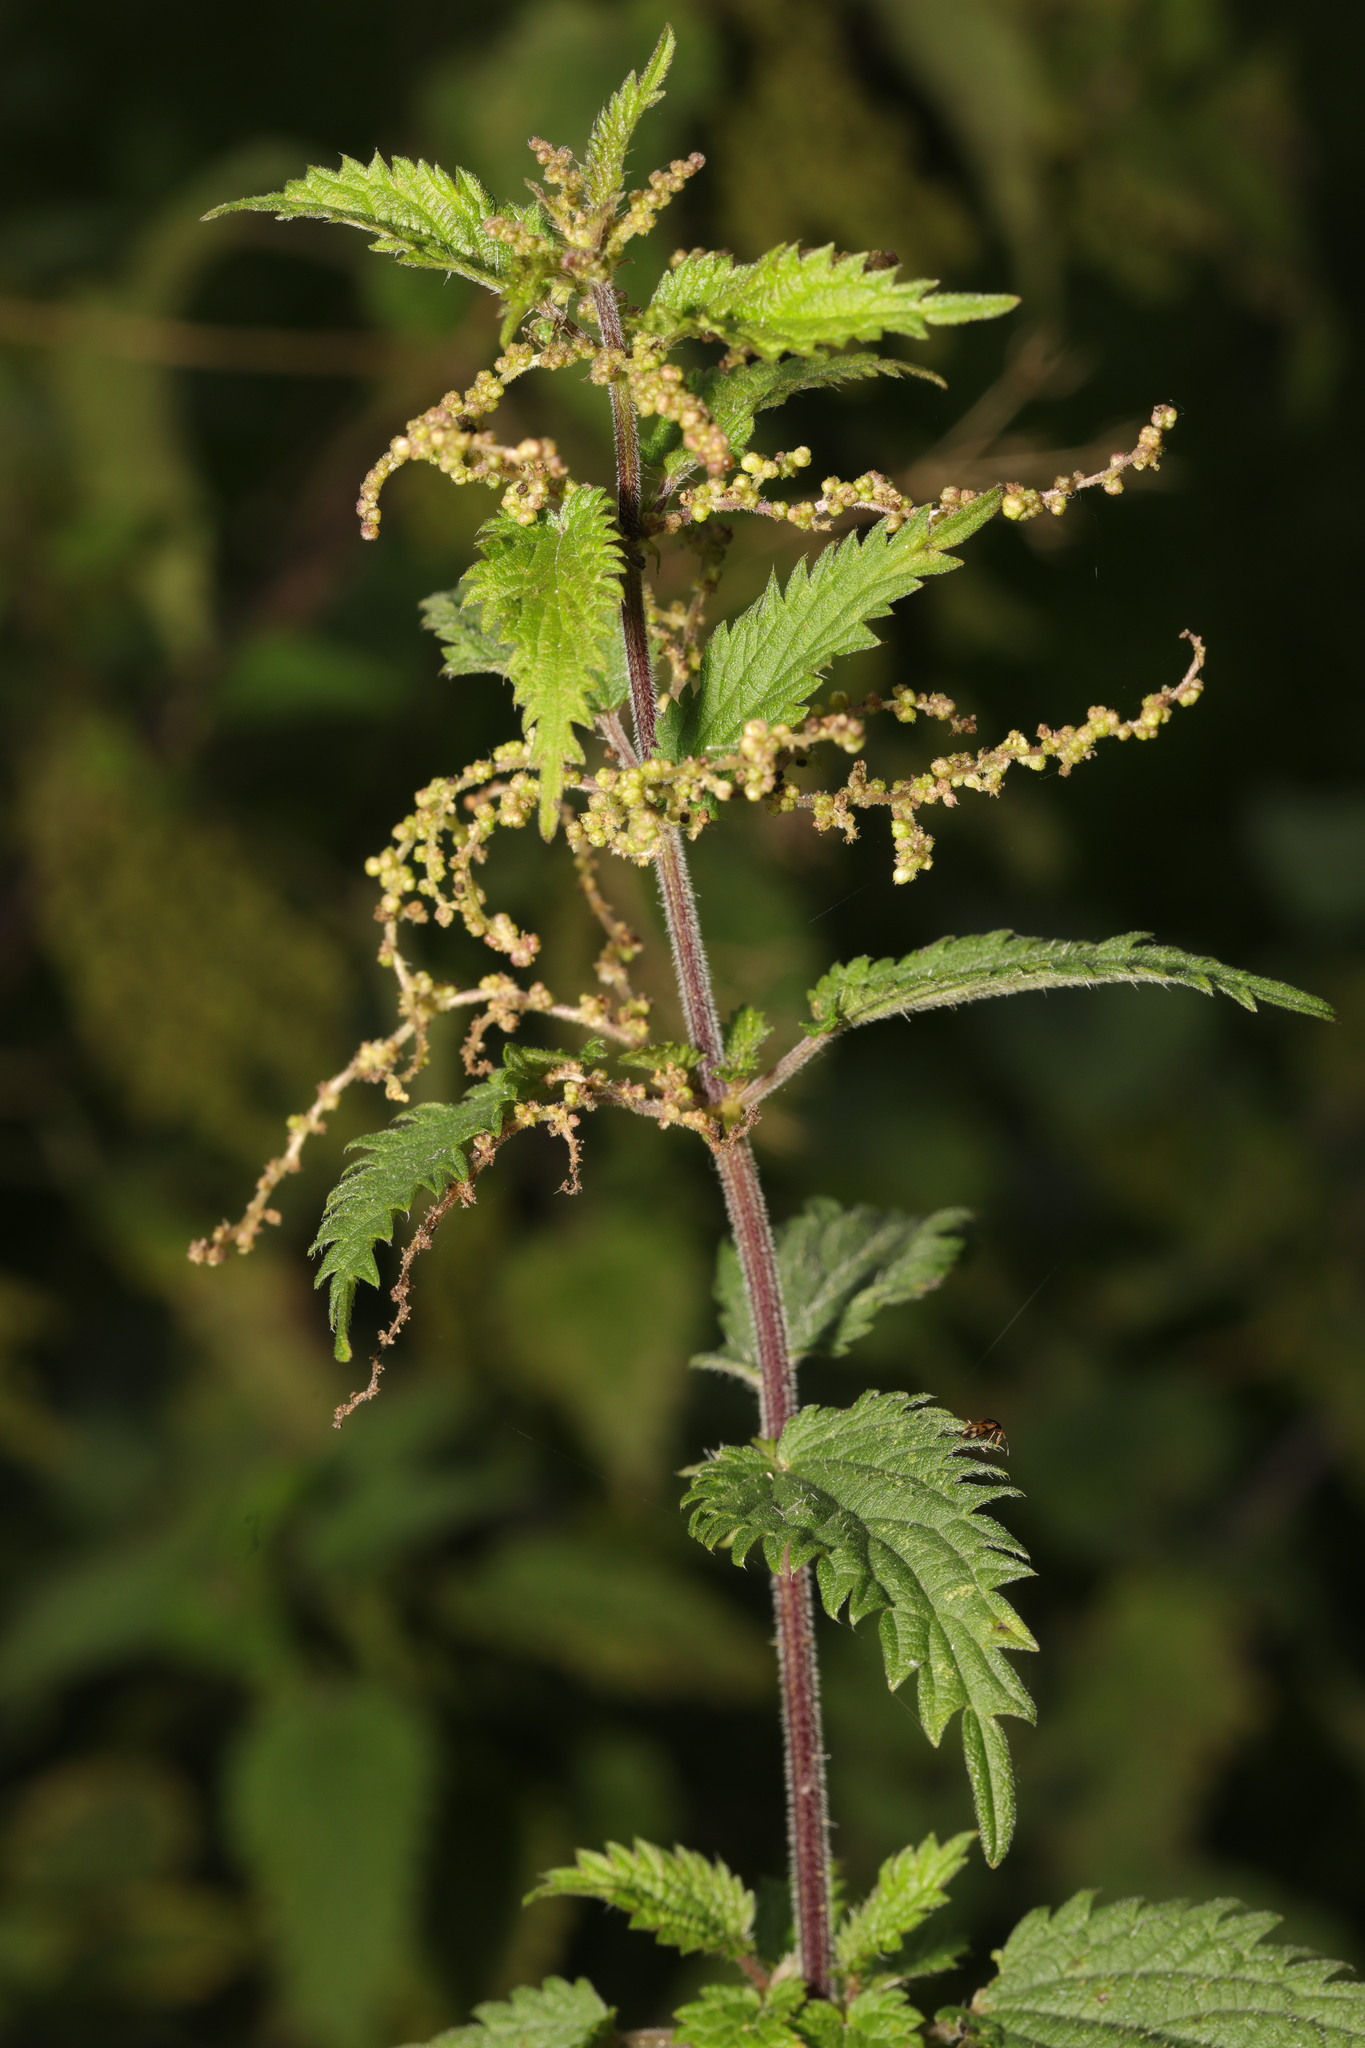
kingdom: Plantae
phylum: Tracheophyta
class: Magnoliopsida
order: Rosales
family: Urticaceae
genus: Urtica
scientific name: Urtica dioica
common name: Common nettle
